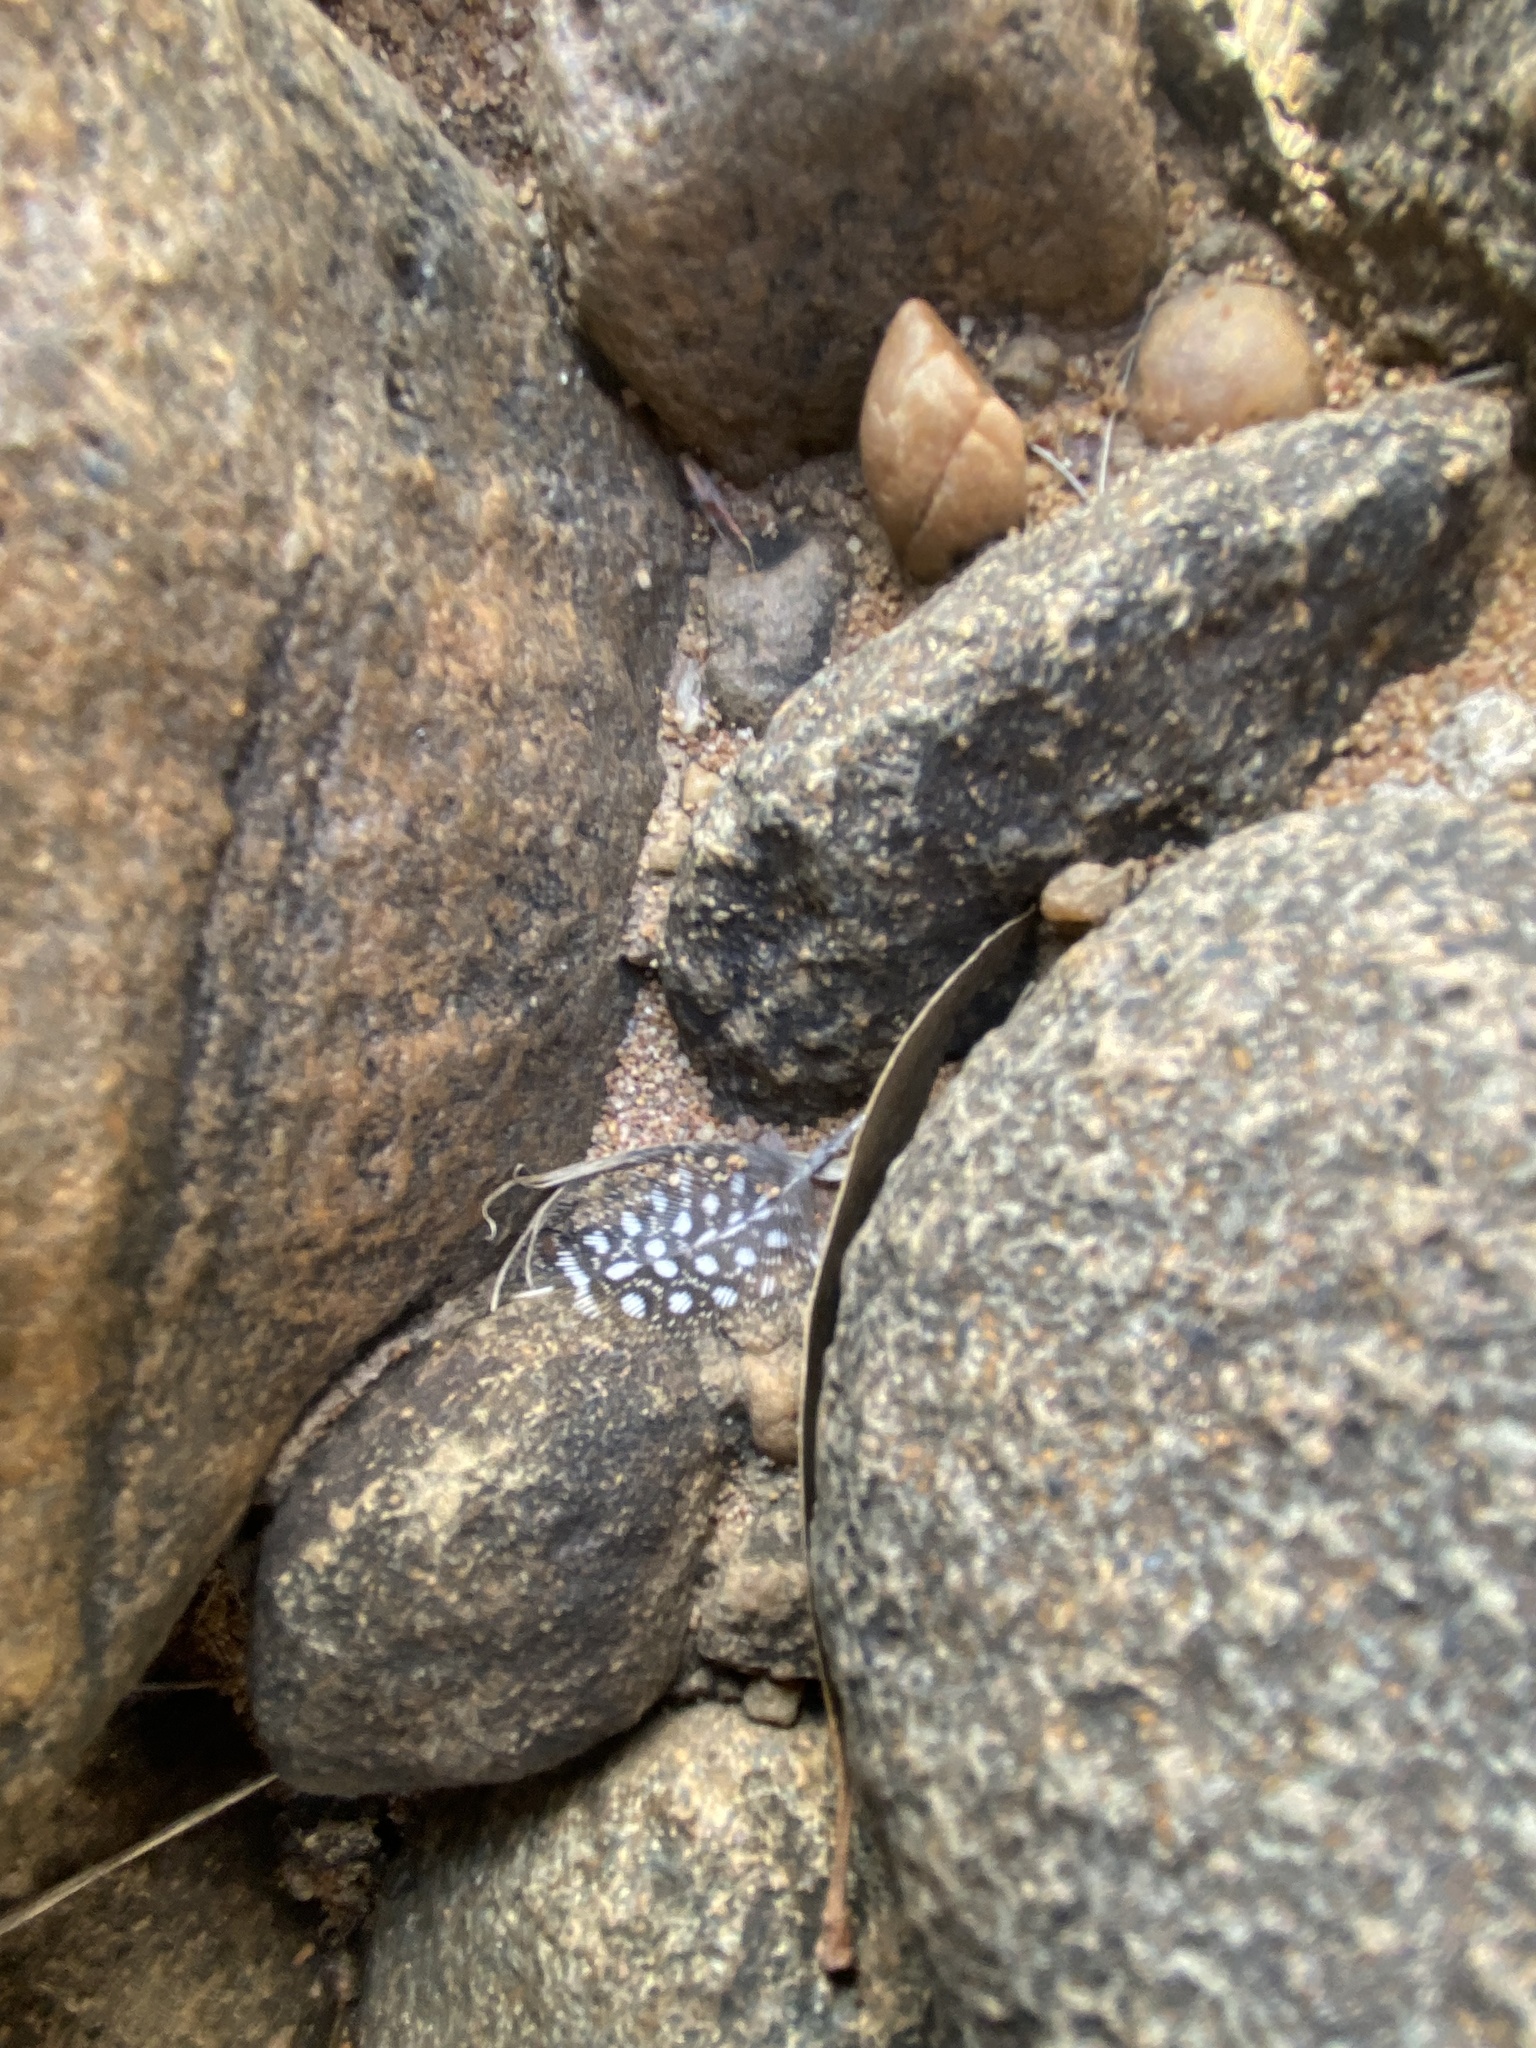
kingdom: Animalia
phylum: Chordata
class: Aves
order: Galliformes
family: Numididae
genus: Numida
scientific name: Numida meleagris
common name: Helmeted guineafowl
